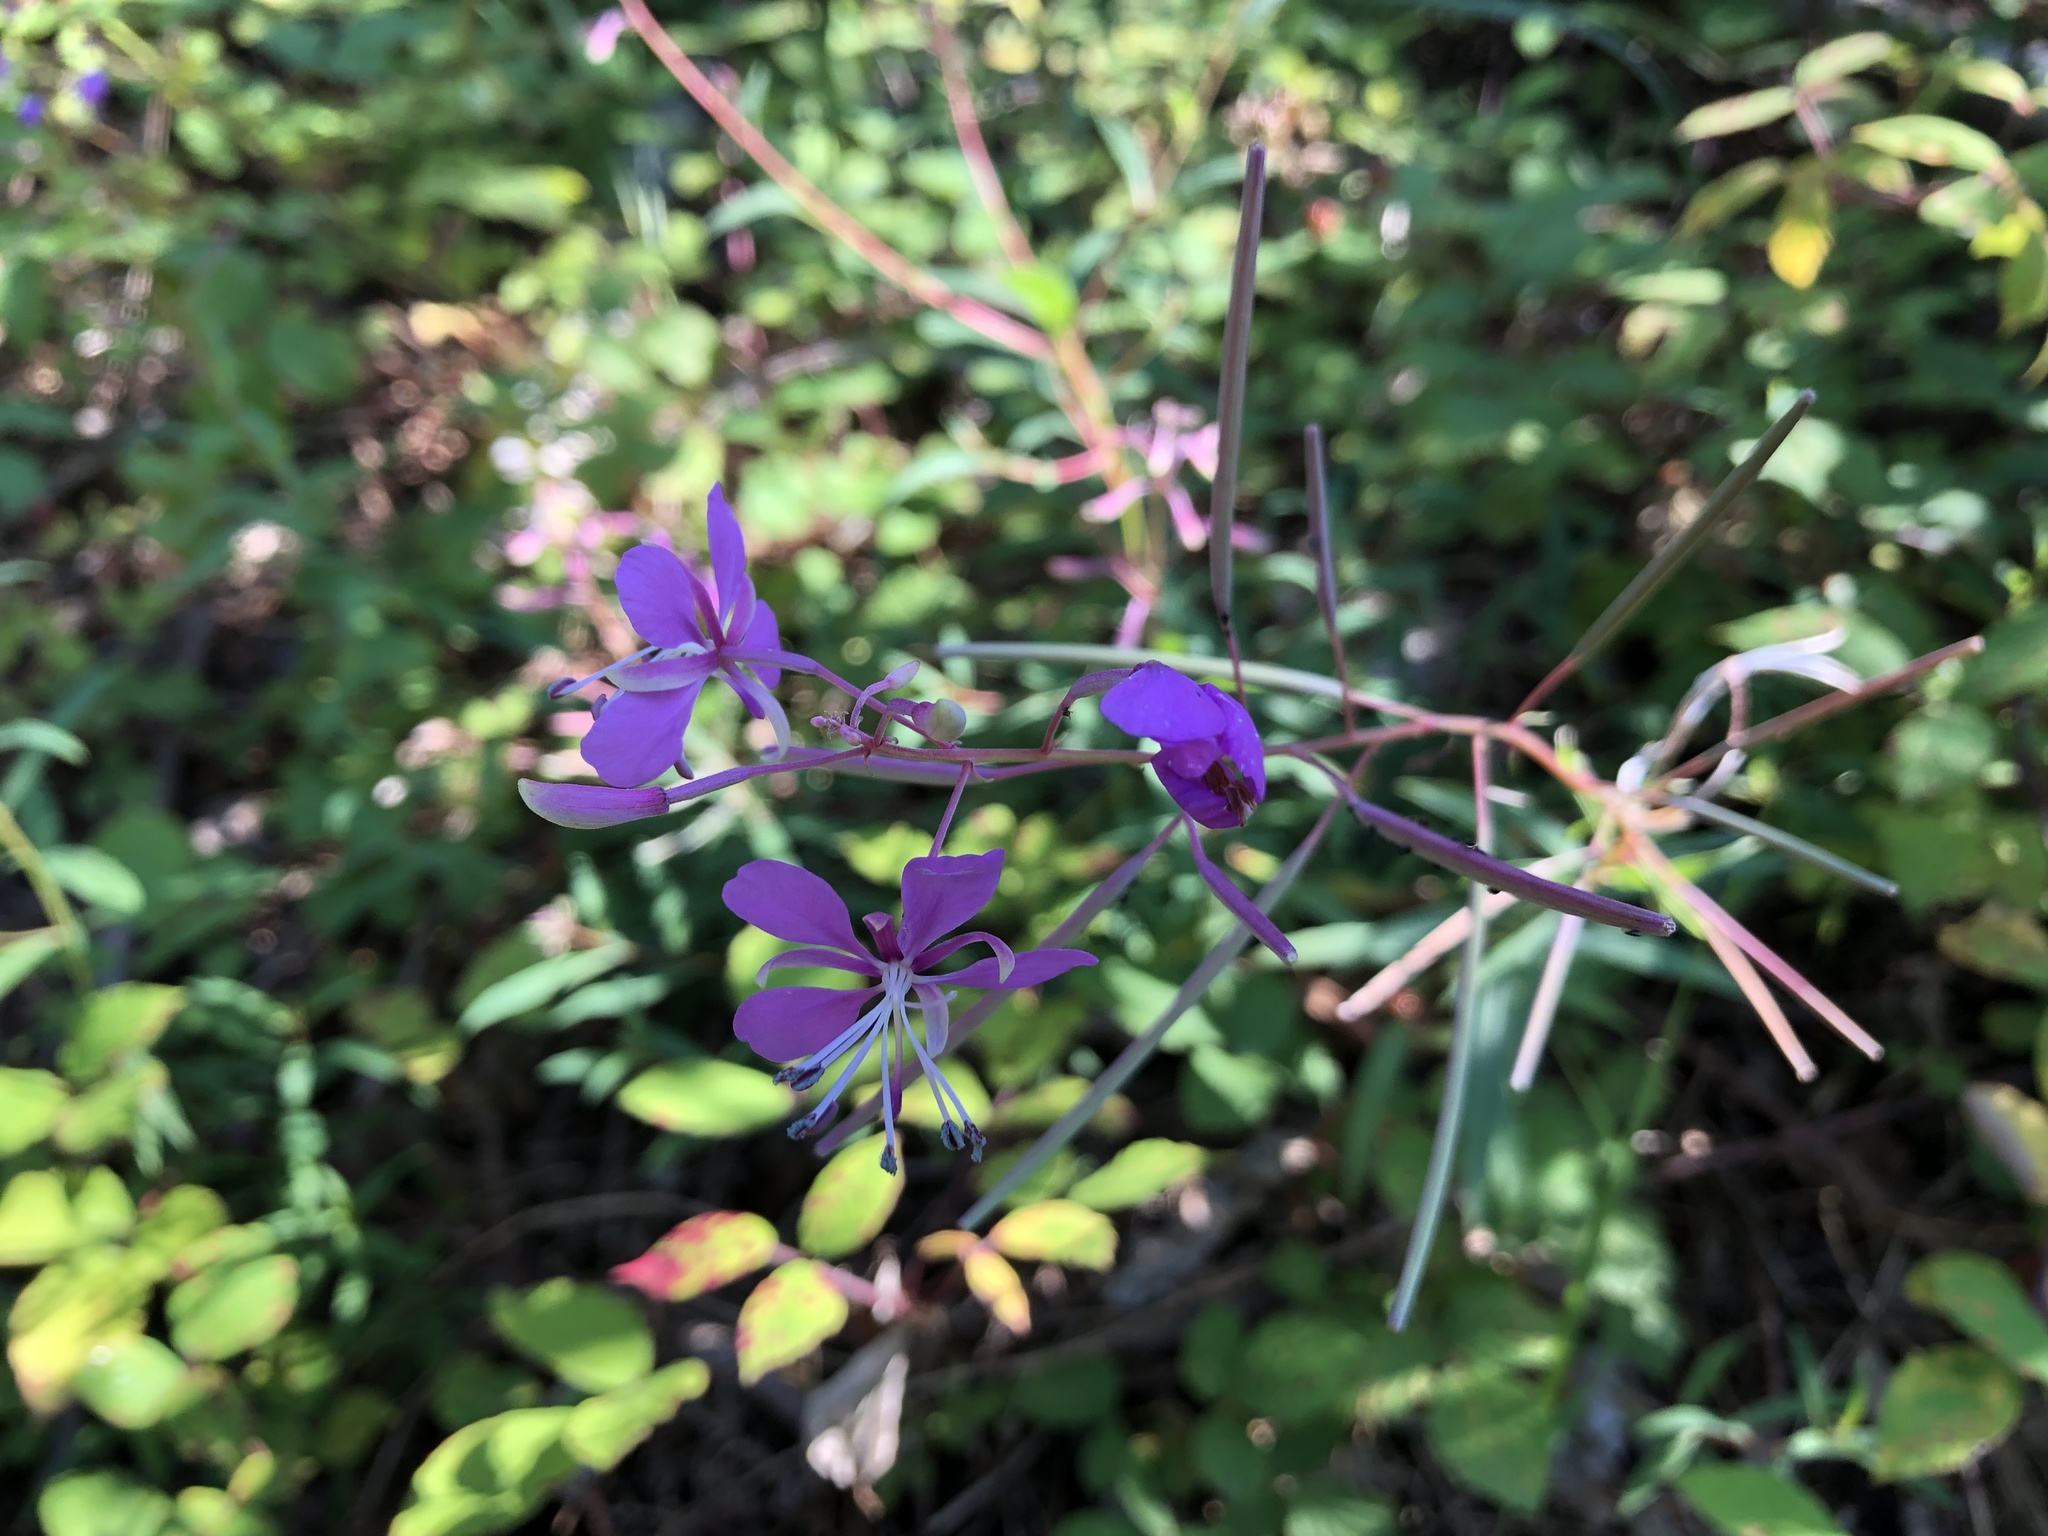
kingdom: Plantae
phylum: Tracheophyta
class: Magnoliopsida
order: Myrtales
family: Onagraceae
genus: Chamaenerion
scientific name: Chamaenerion angustifolium
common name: Fireweed
